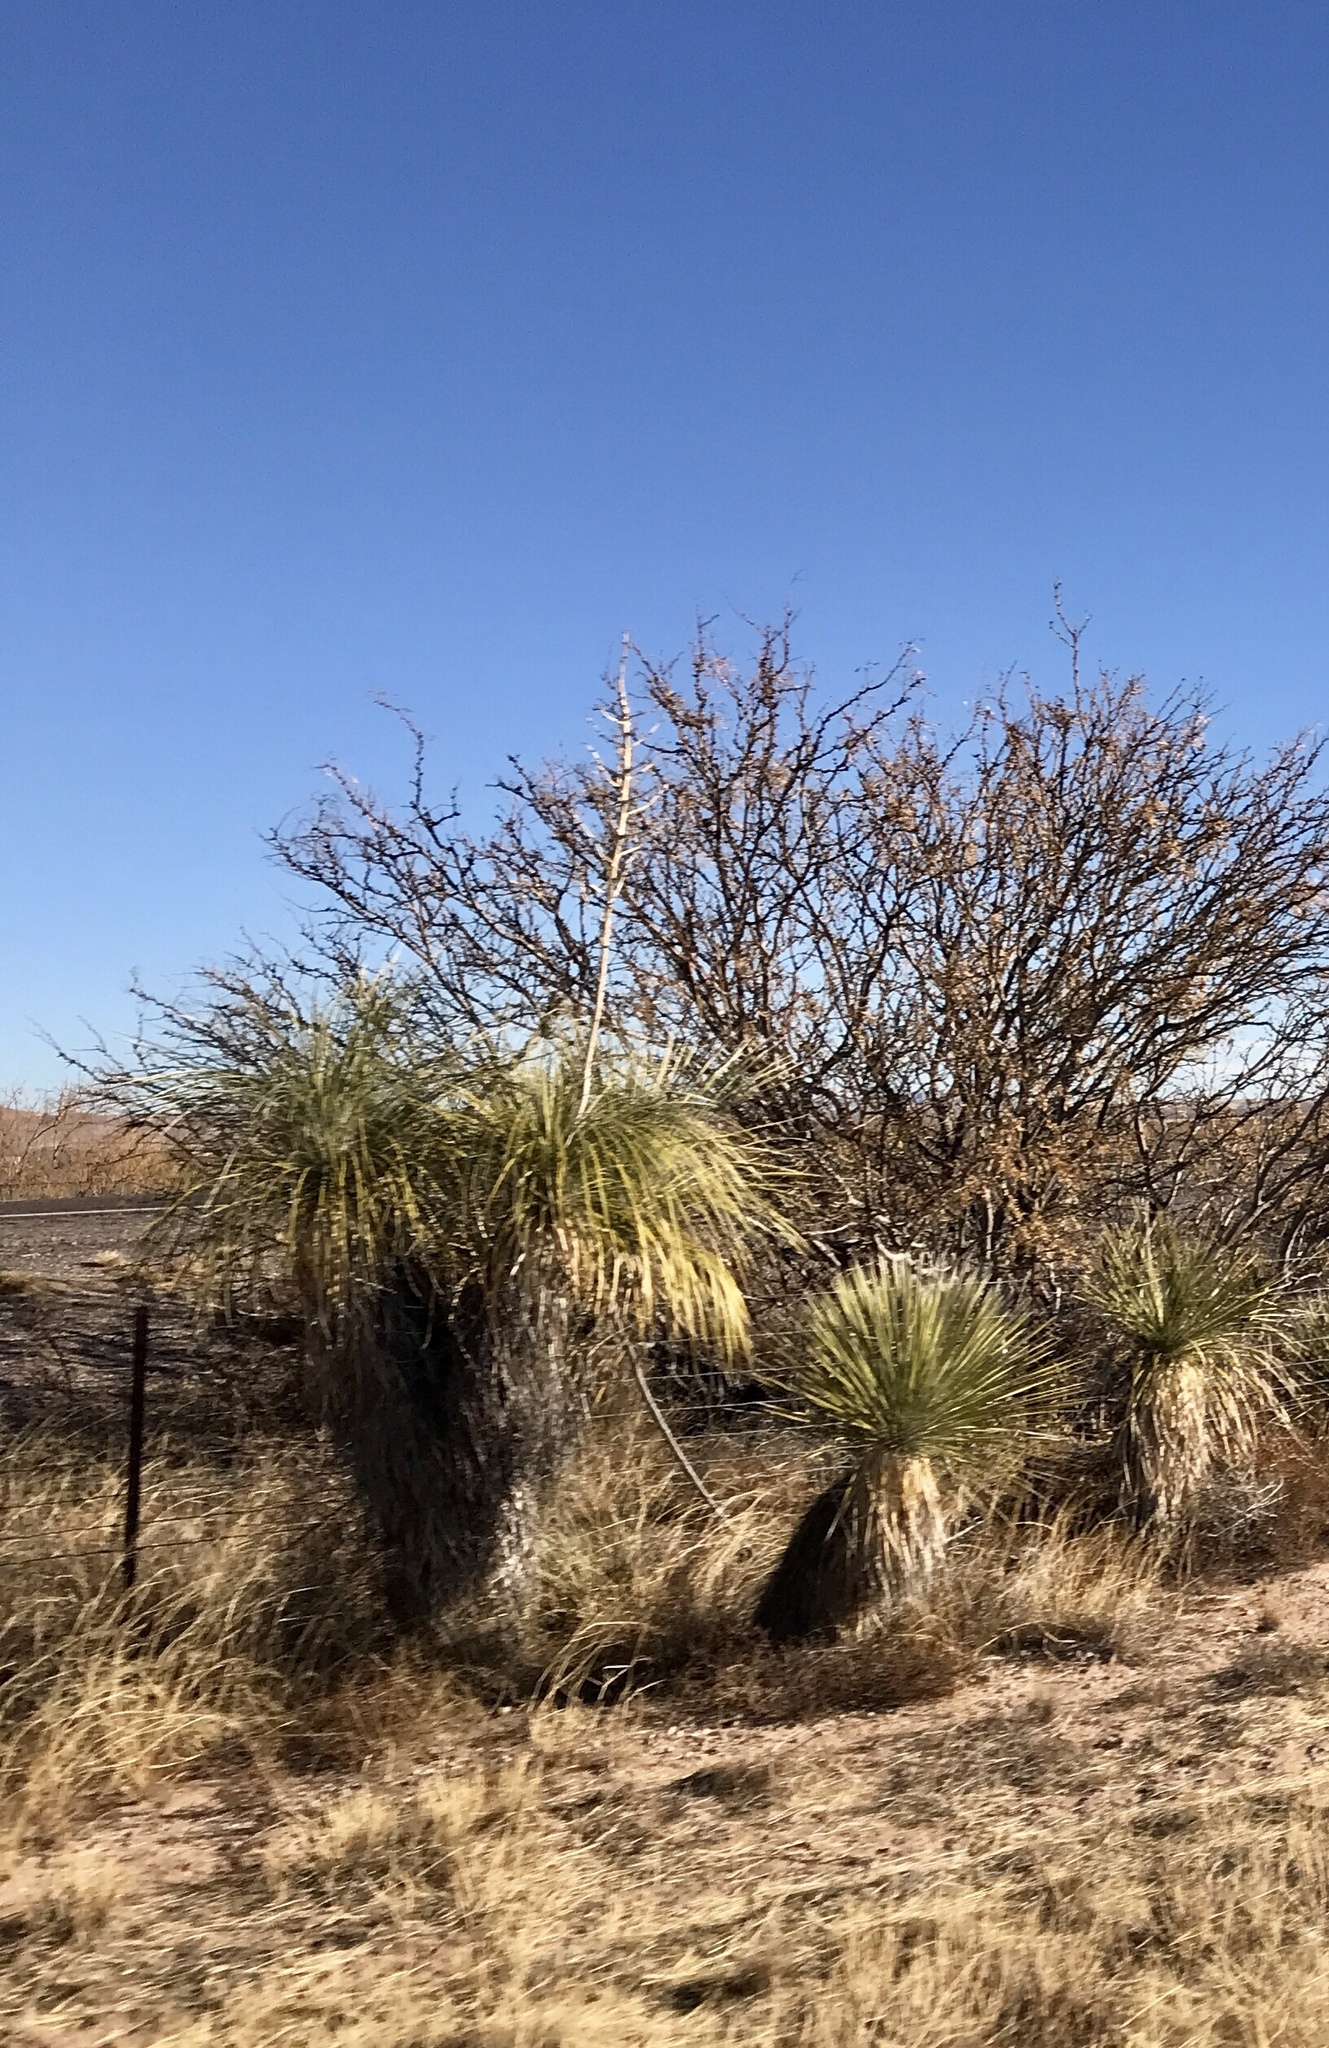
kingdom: Plantae
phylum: Tracheophyta
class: Liliopsida
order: Asparagales
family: Asparagaceae
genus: Yucca
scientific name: Yucca elata
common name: Palmella
